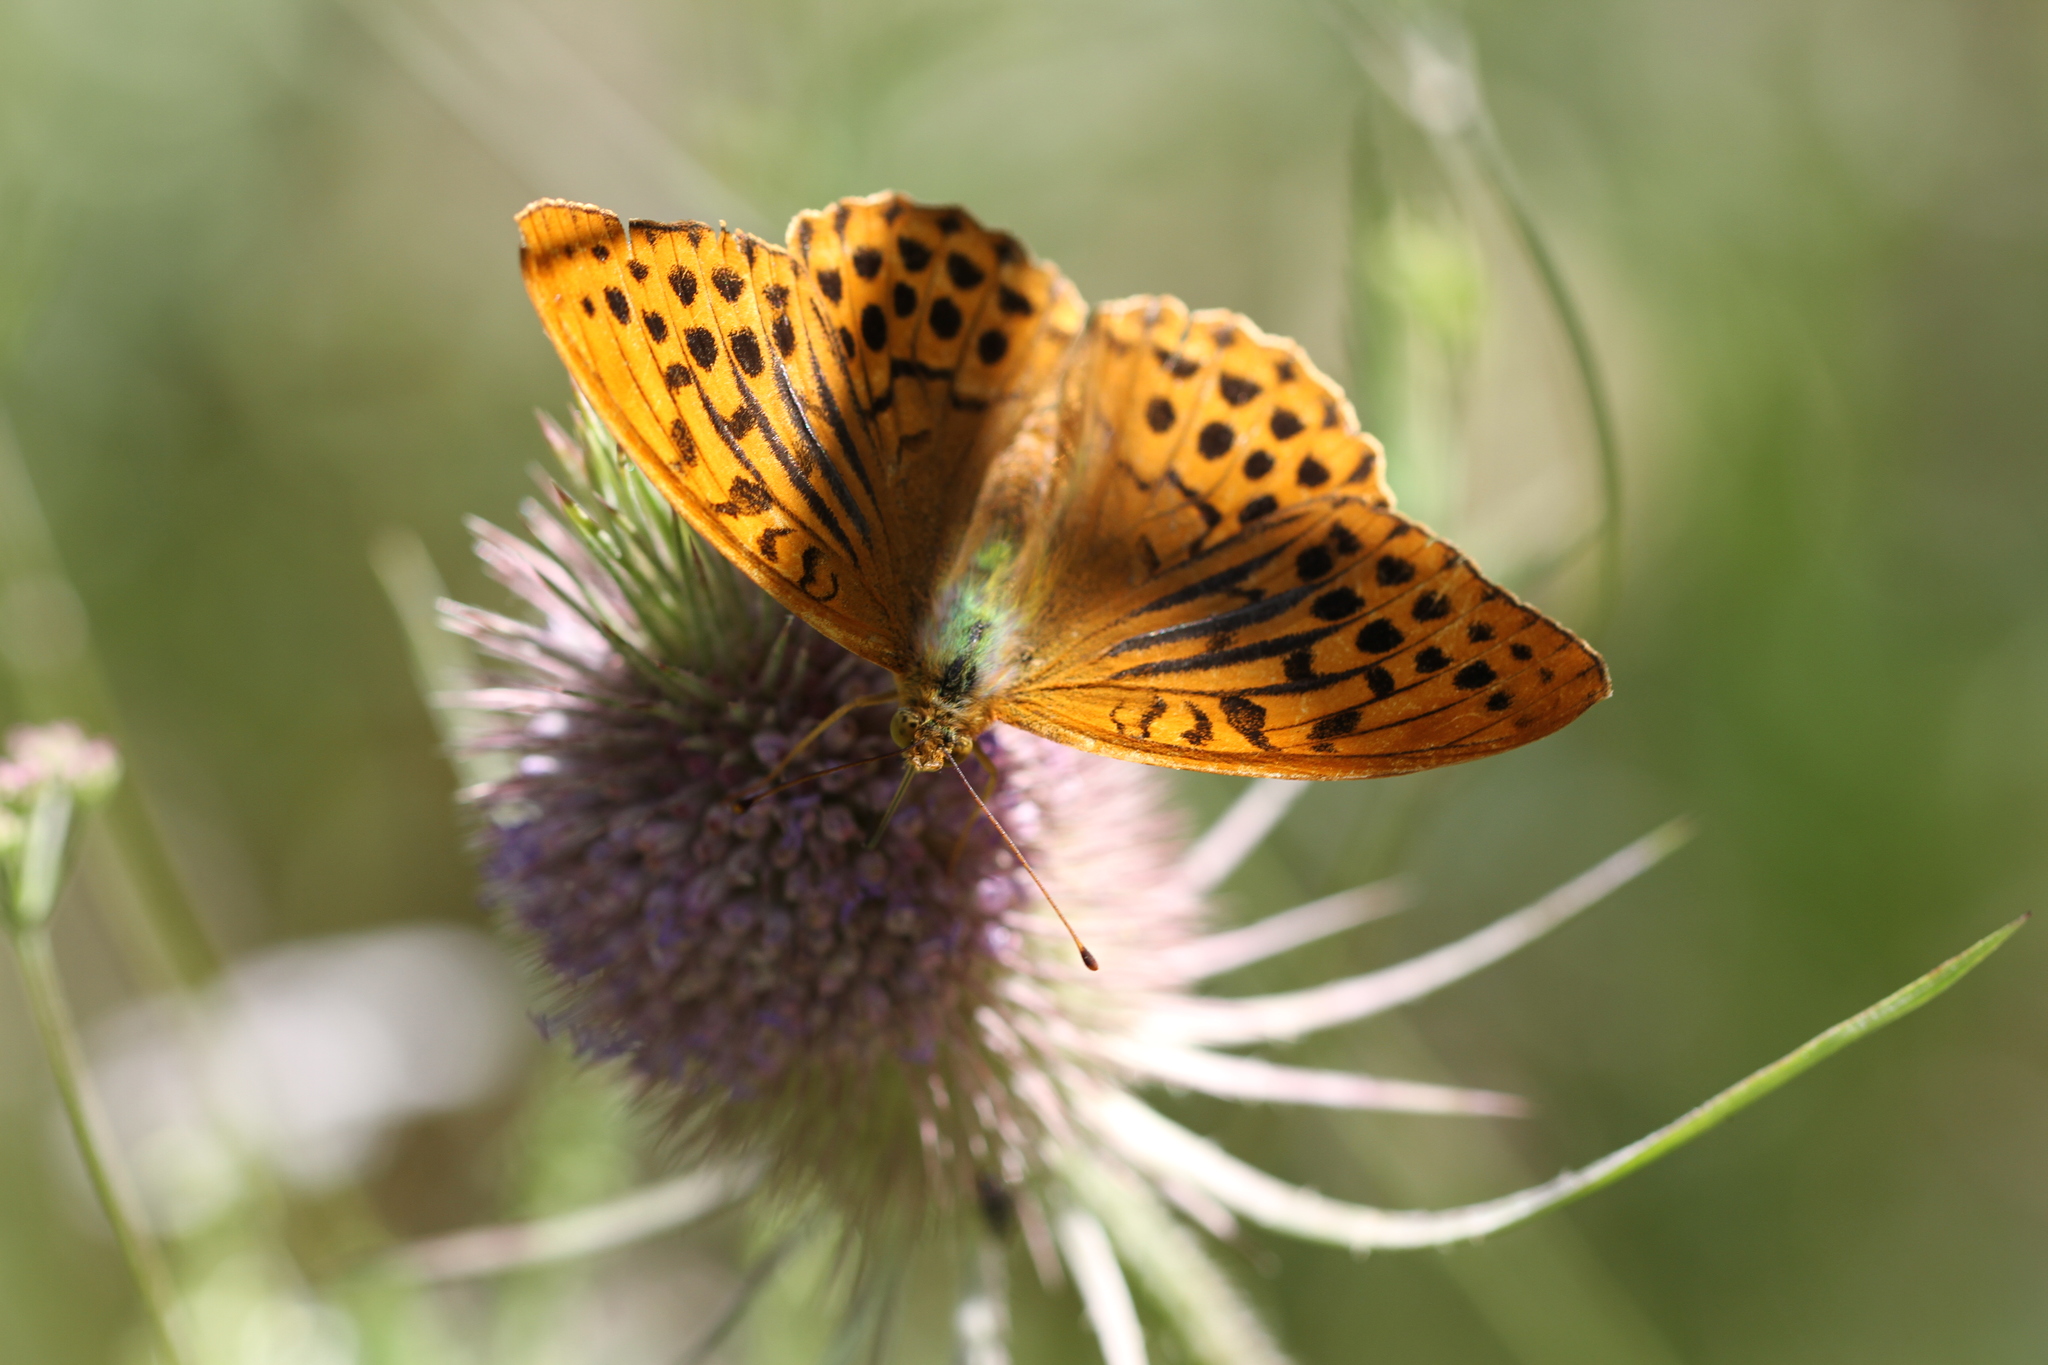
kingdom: Animalia
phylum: Arthropoda
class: Insecta
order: Lepidoptera
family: Nymphalidae
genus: Argynnis
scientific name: Argynnis paphia
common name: Silver-washed fritillary
